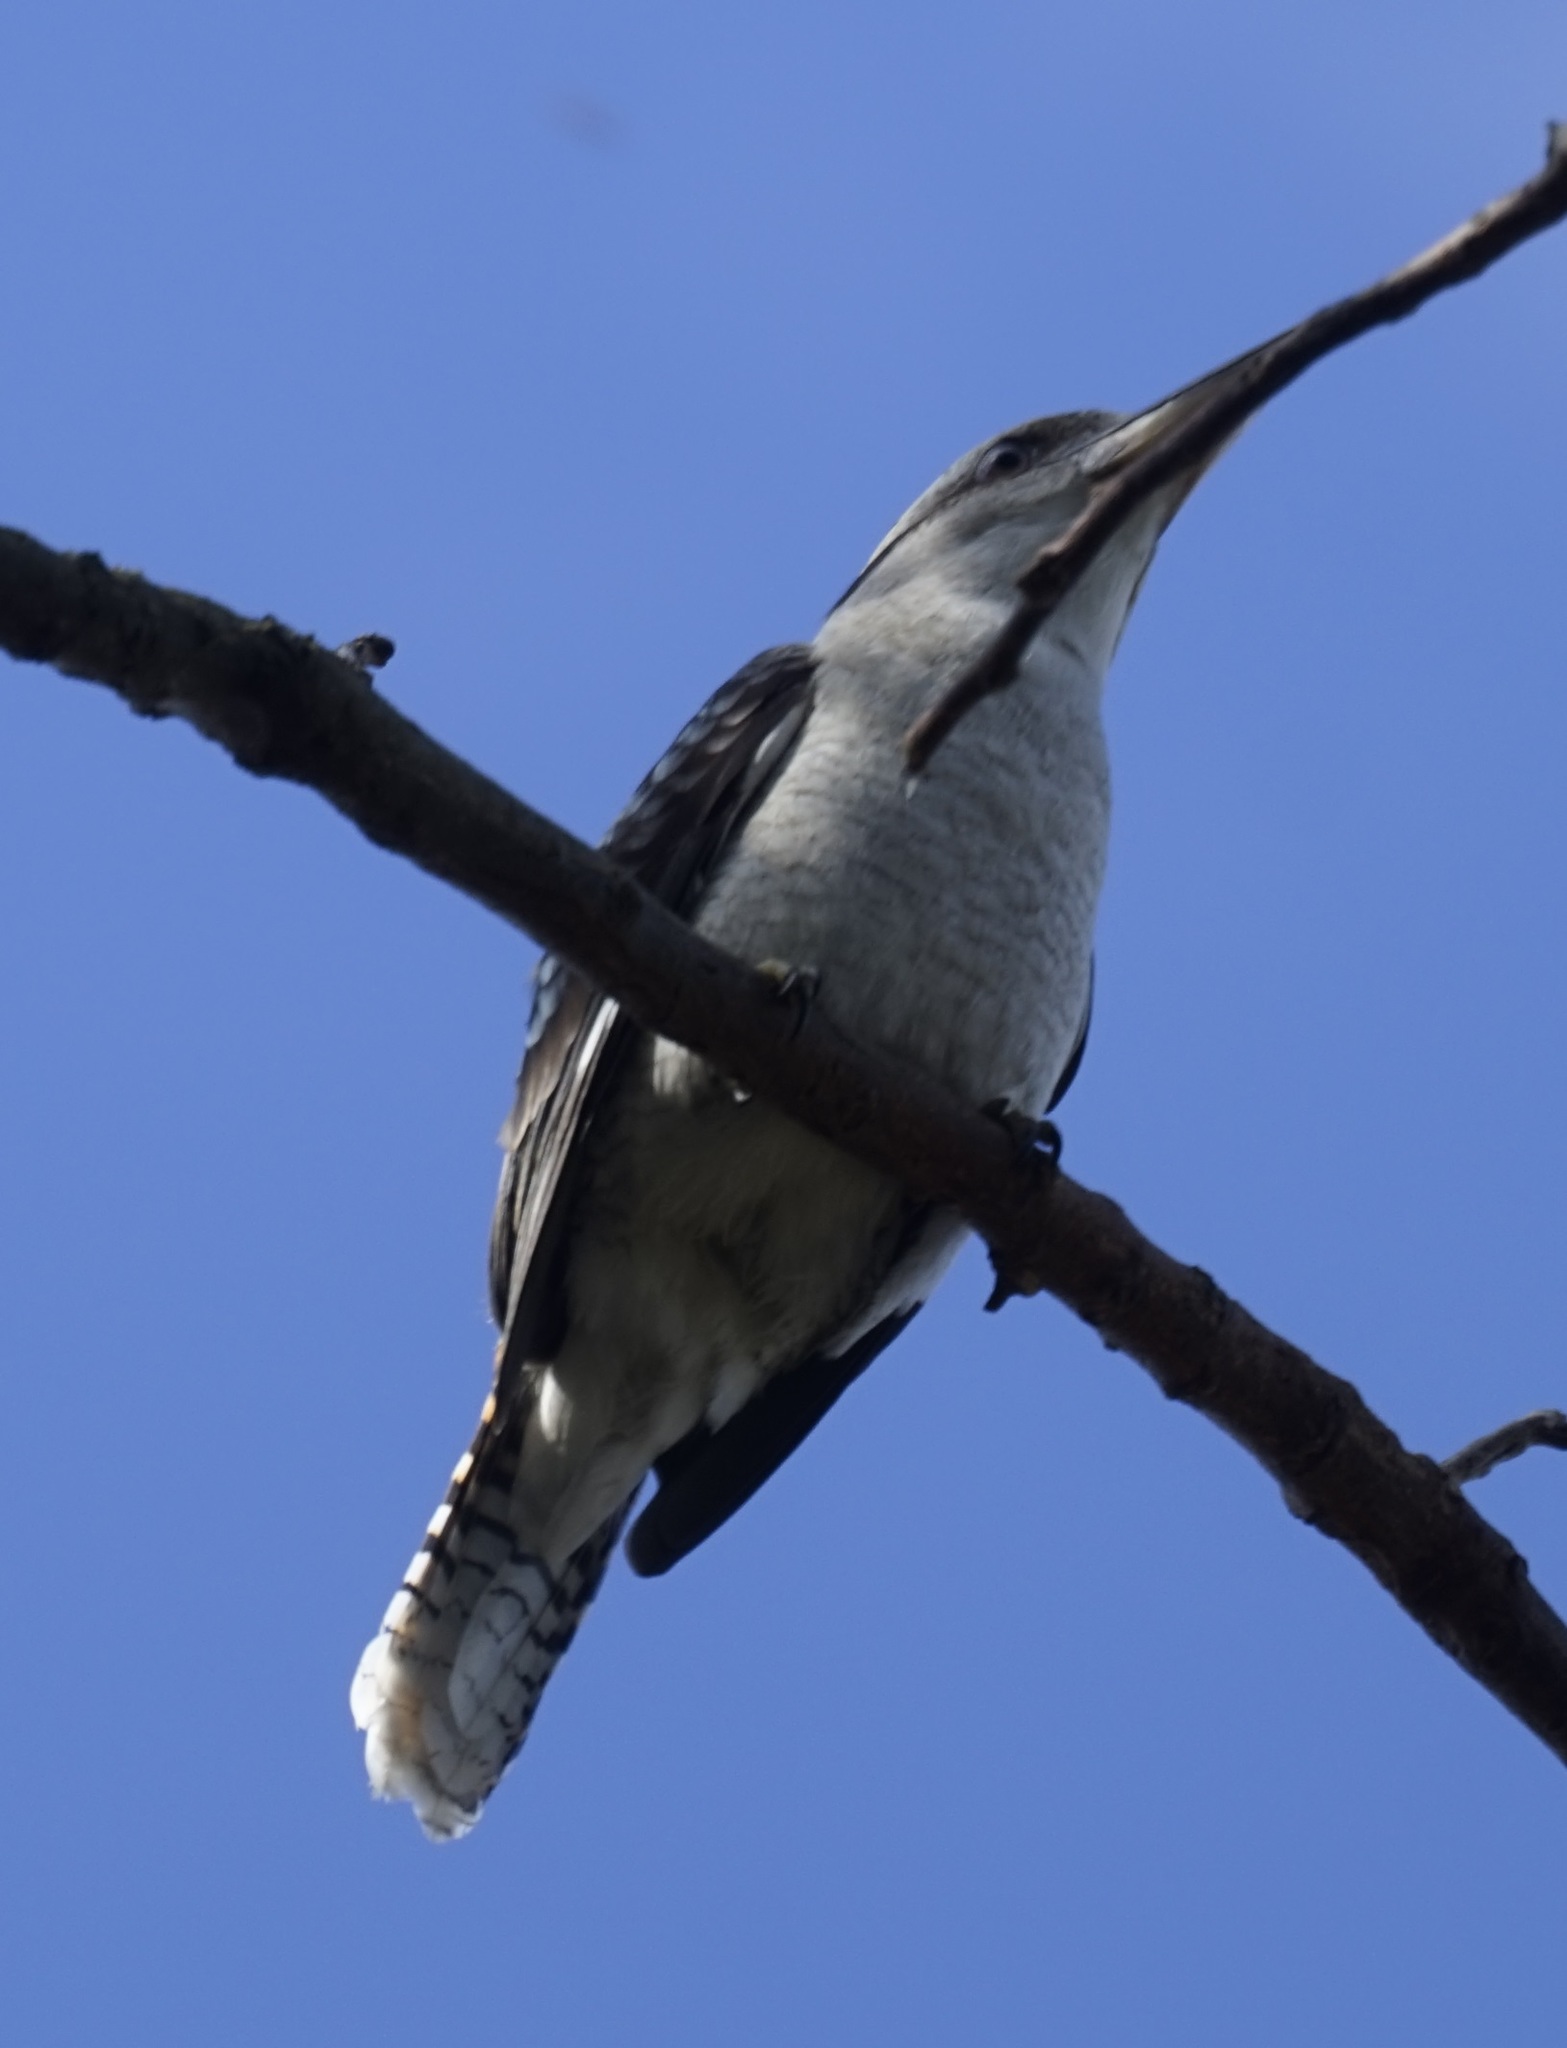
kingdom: Animalia
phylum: Chordata
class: Aves
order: Coraciiformes
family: Alcedinidae
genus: Dacelo
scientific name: Dacelo novaeguineae
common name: Laughing kookaburra
